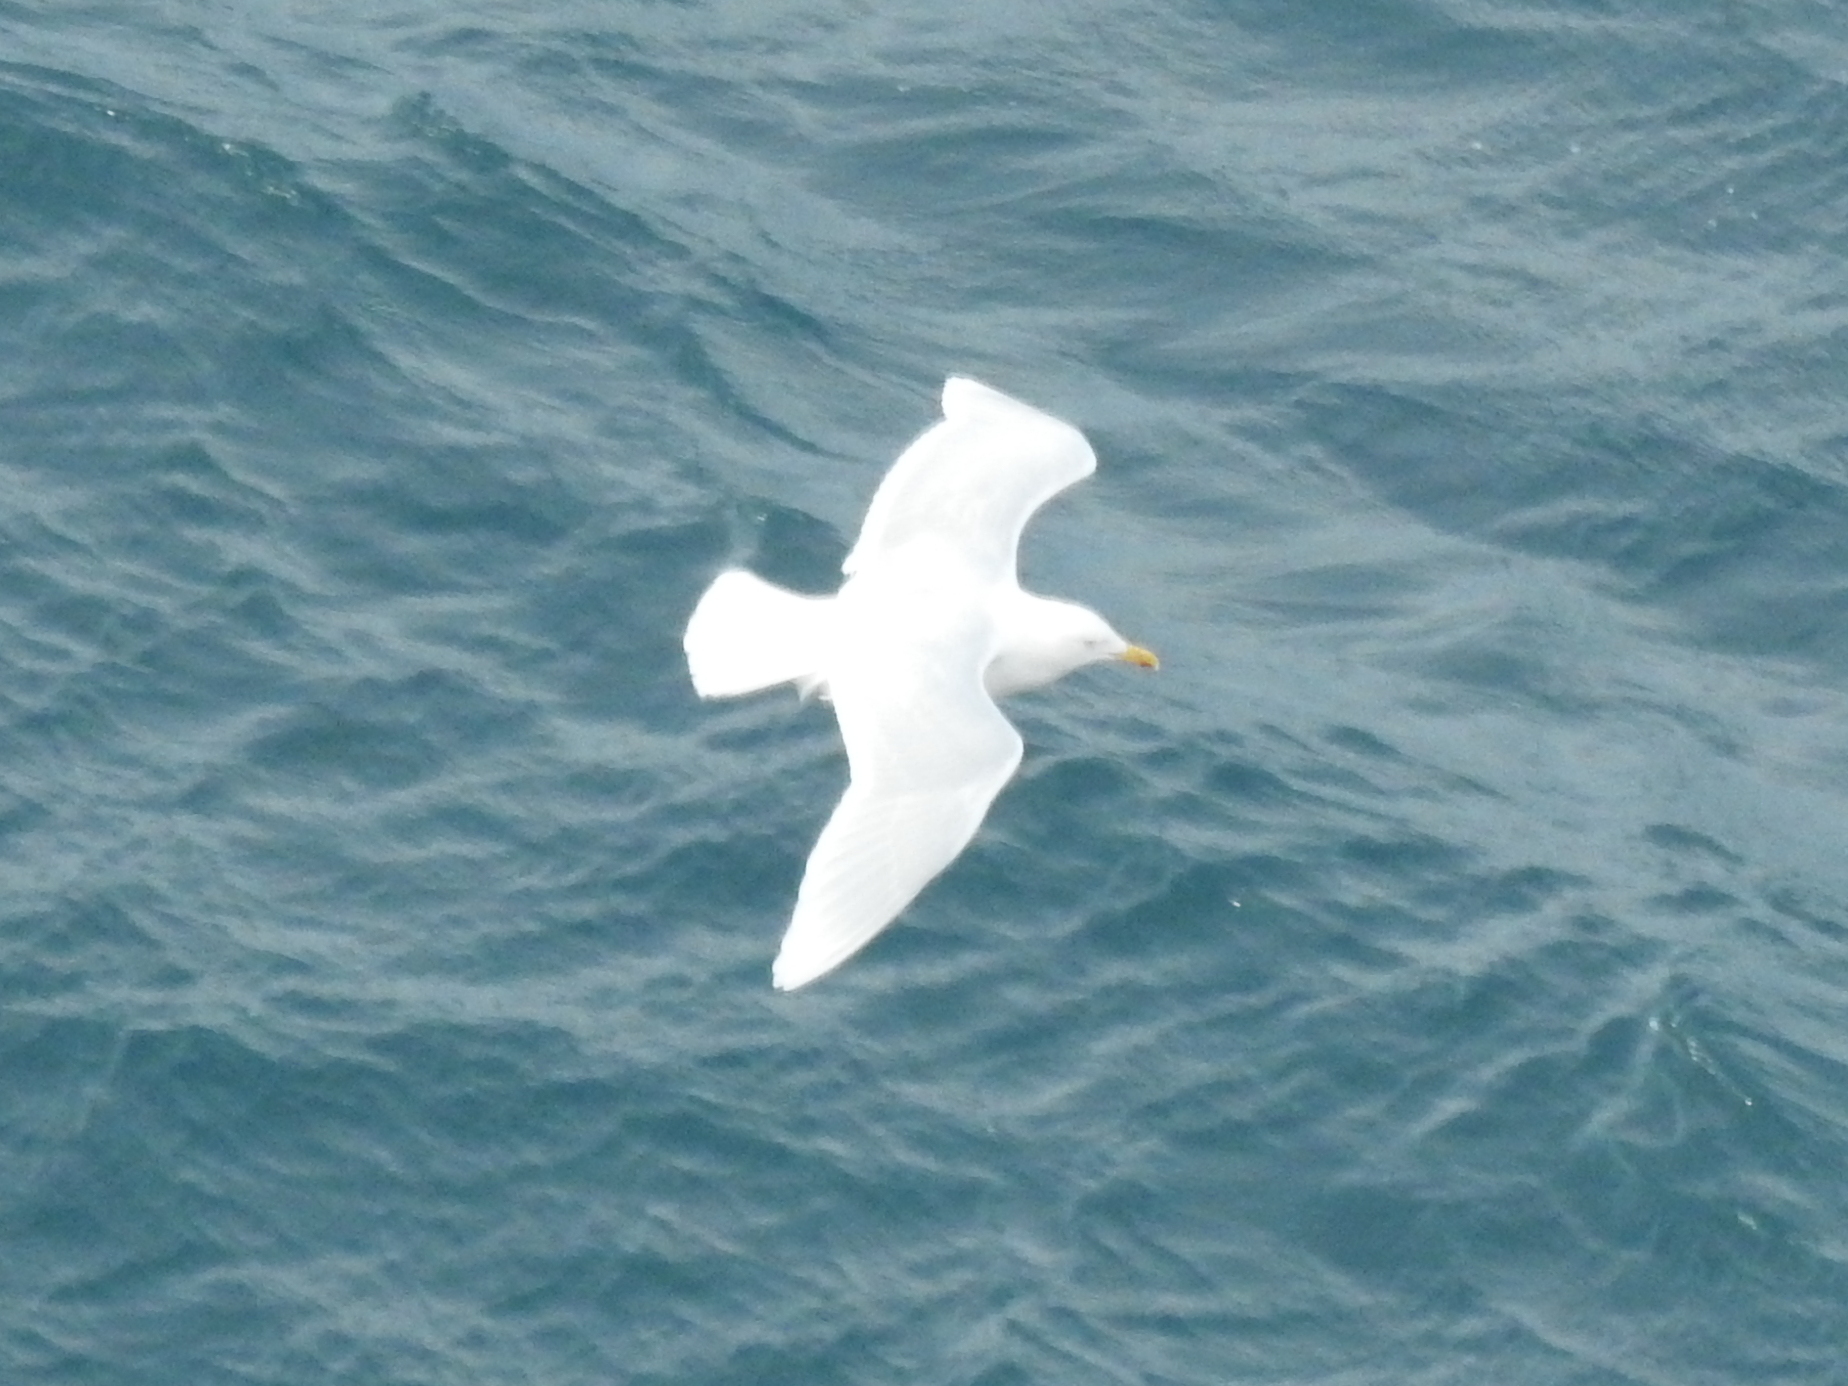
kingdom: Animalia
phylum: Chordata
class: Aves
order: Charadriiformes
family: Laridae
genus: Larus
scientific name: Larus hyperboreus
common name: Glaucous gull
